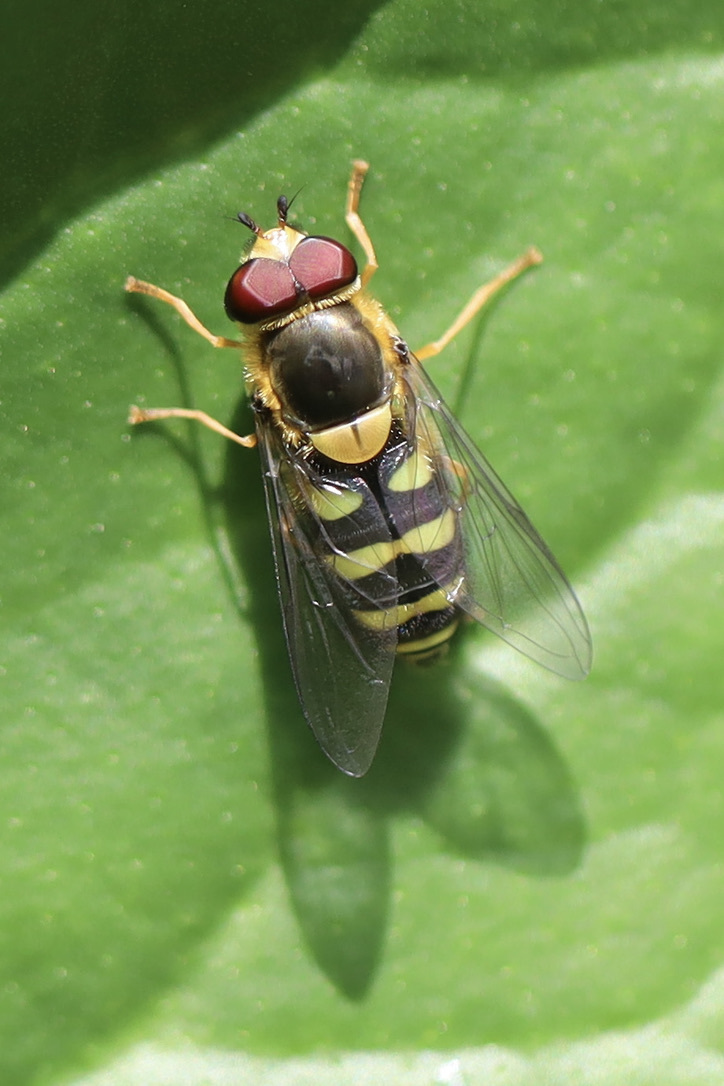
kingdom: Animalia
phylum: Arthropoda
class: Insecta
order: Diptera
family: Syrphidae
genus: Syrphus
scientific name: Syrphus opinator
